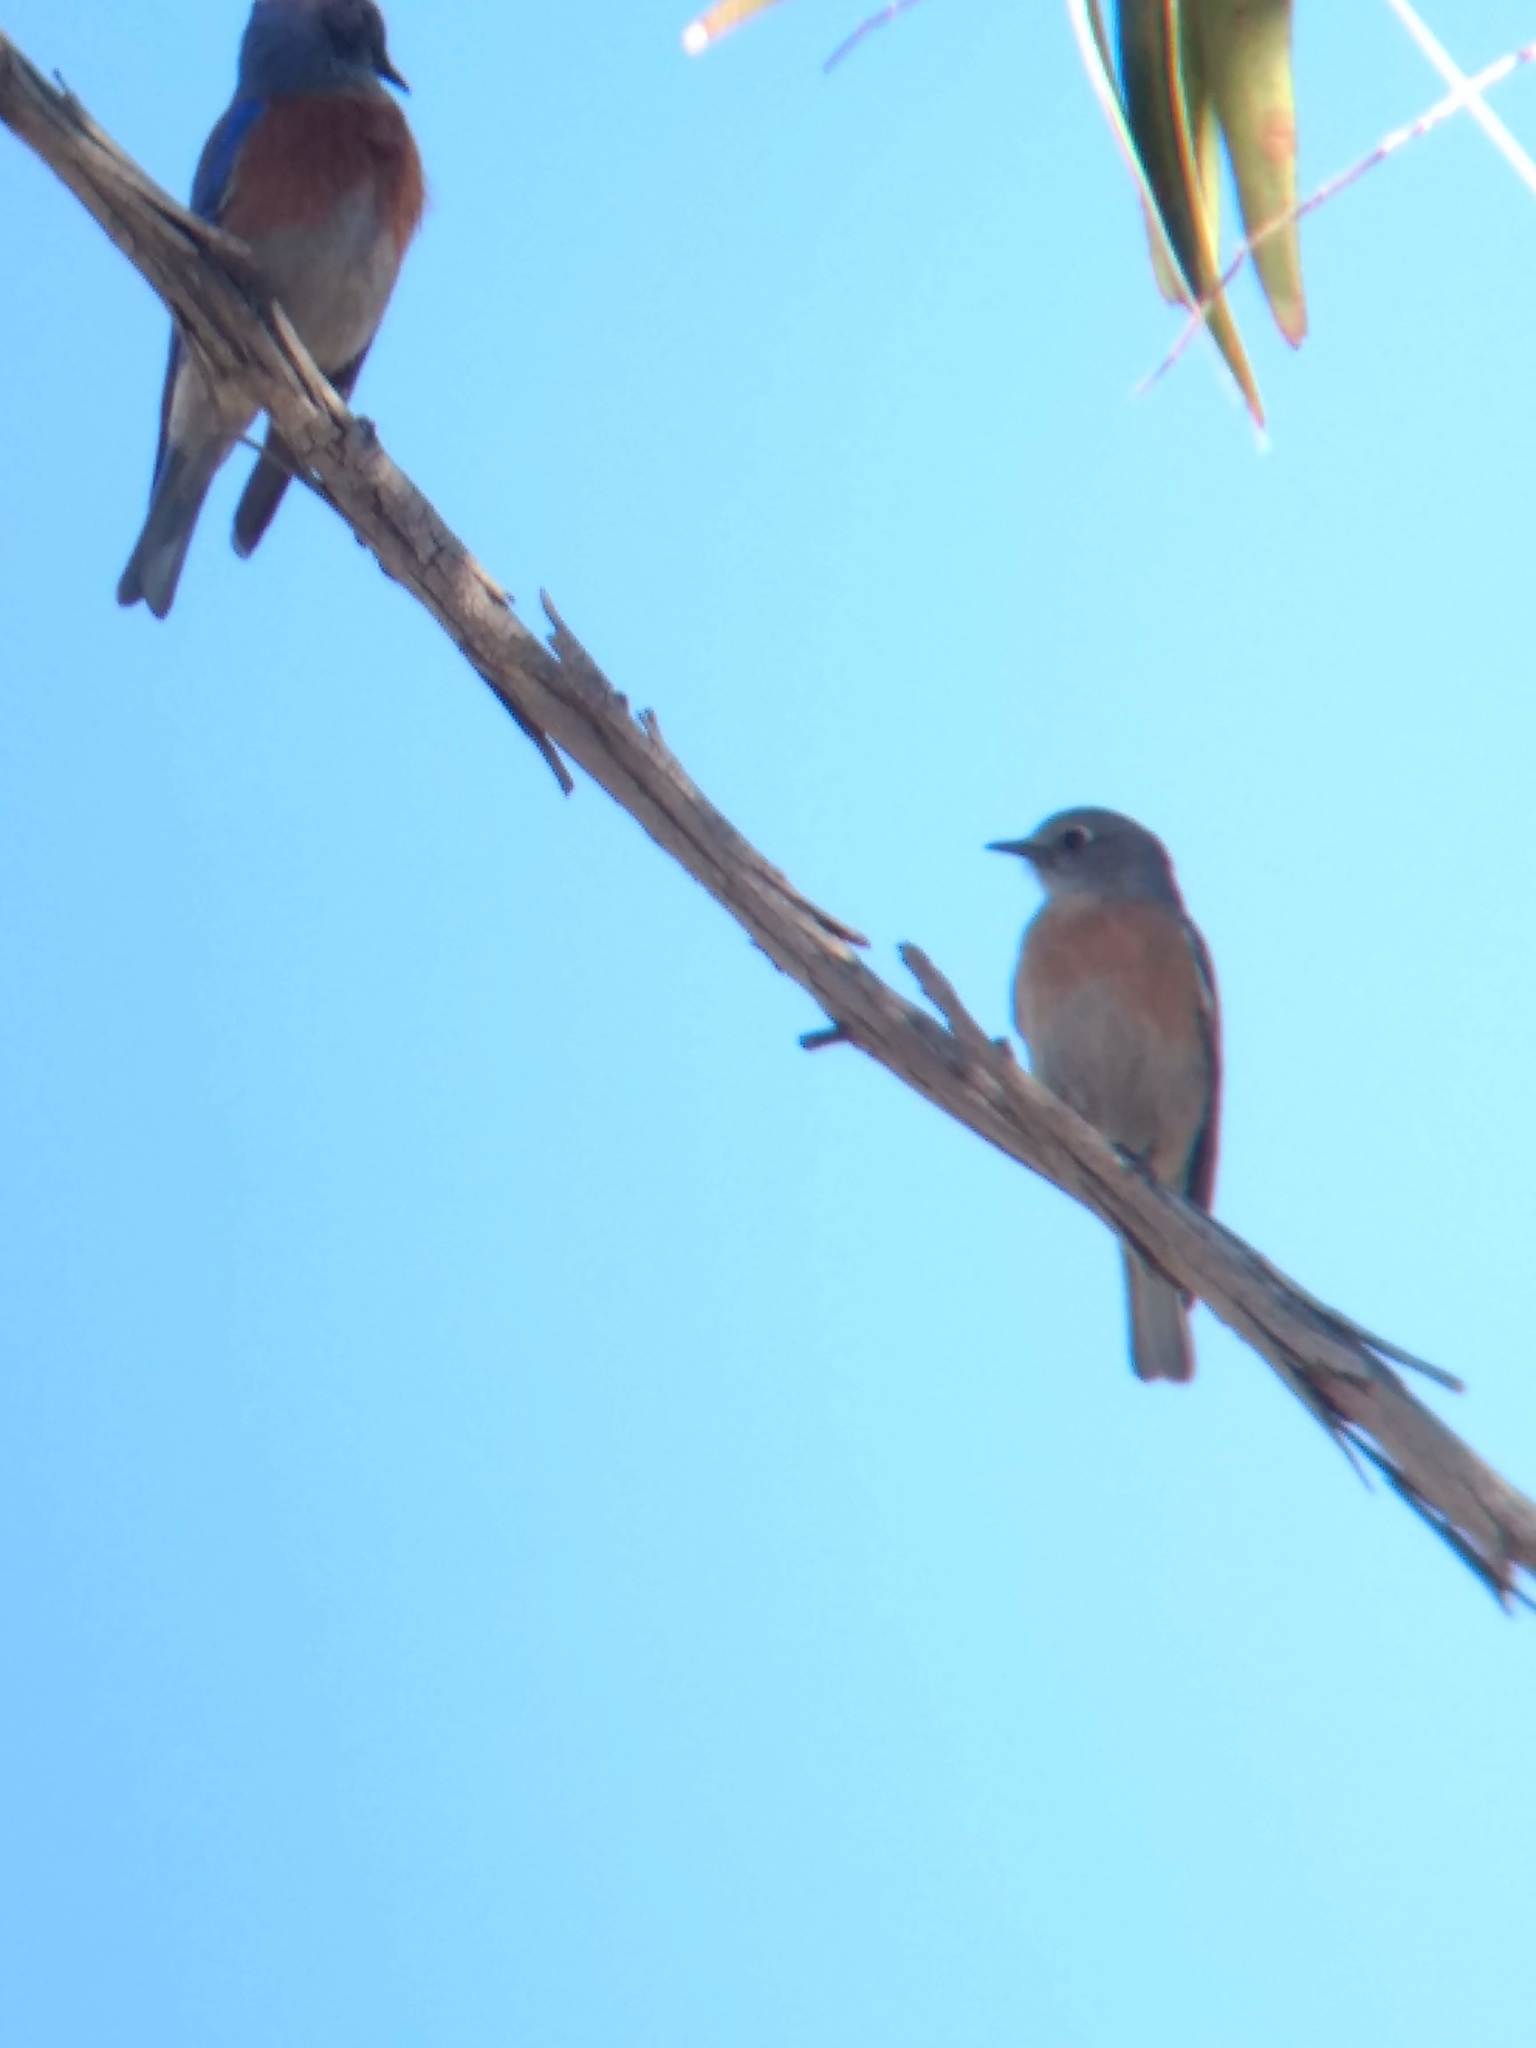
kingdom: Animalia
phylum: Chordata
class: Aves
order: Passeriformes
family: Turdidae
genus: Sialia
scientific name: Sialia mexicana
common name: Western bluebird
